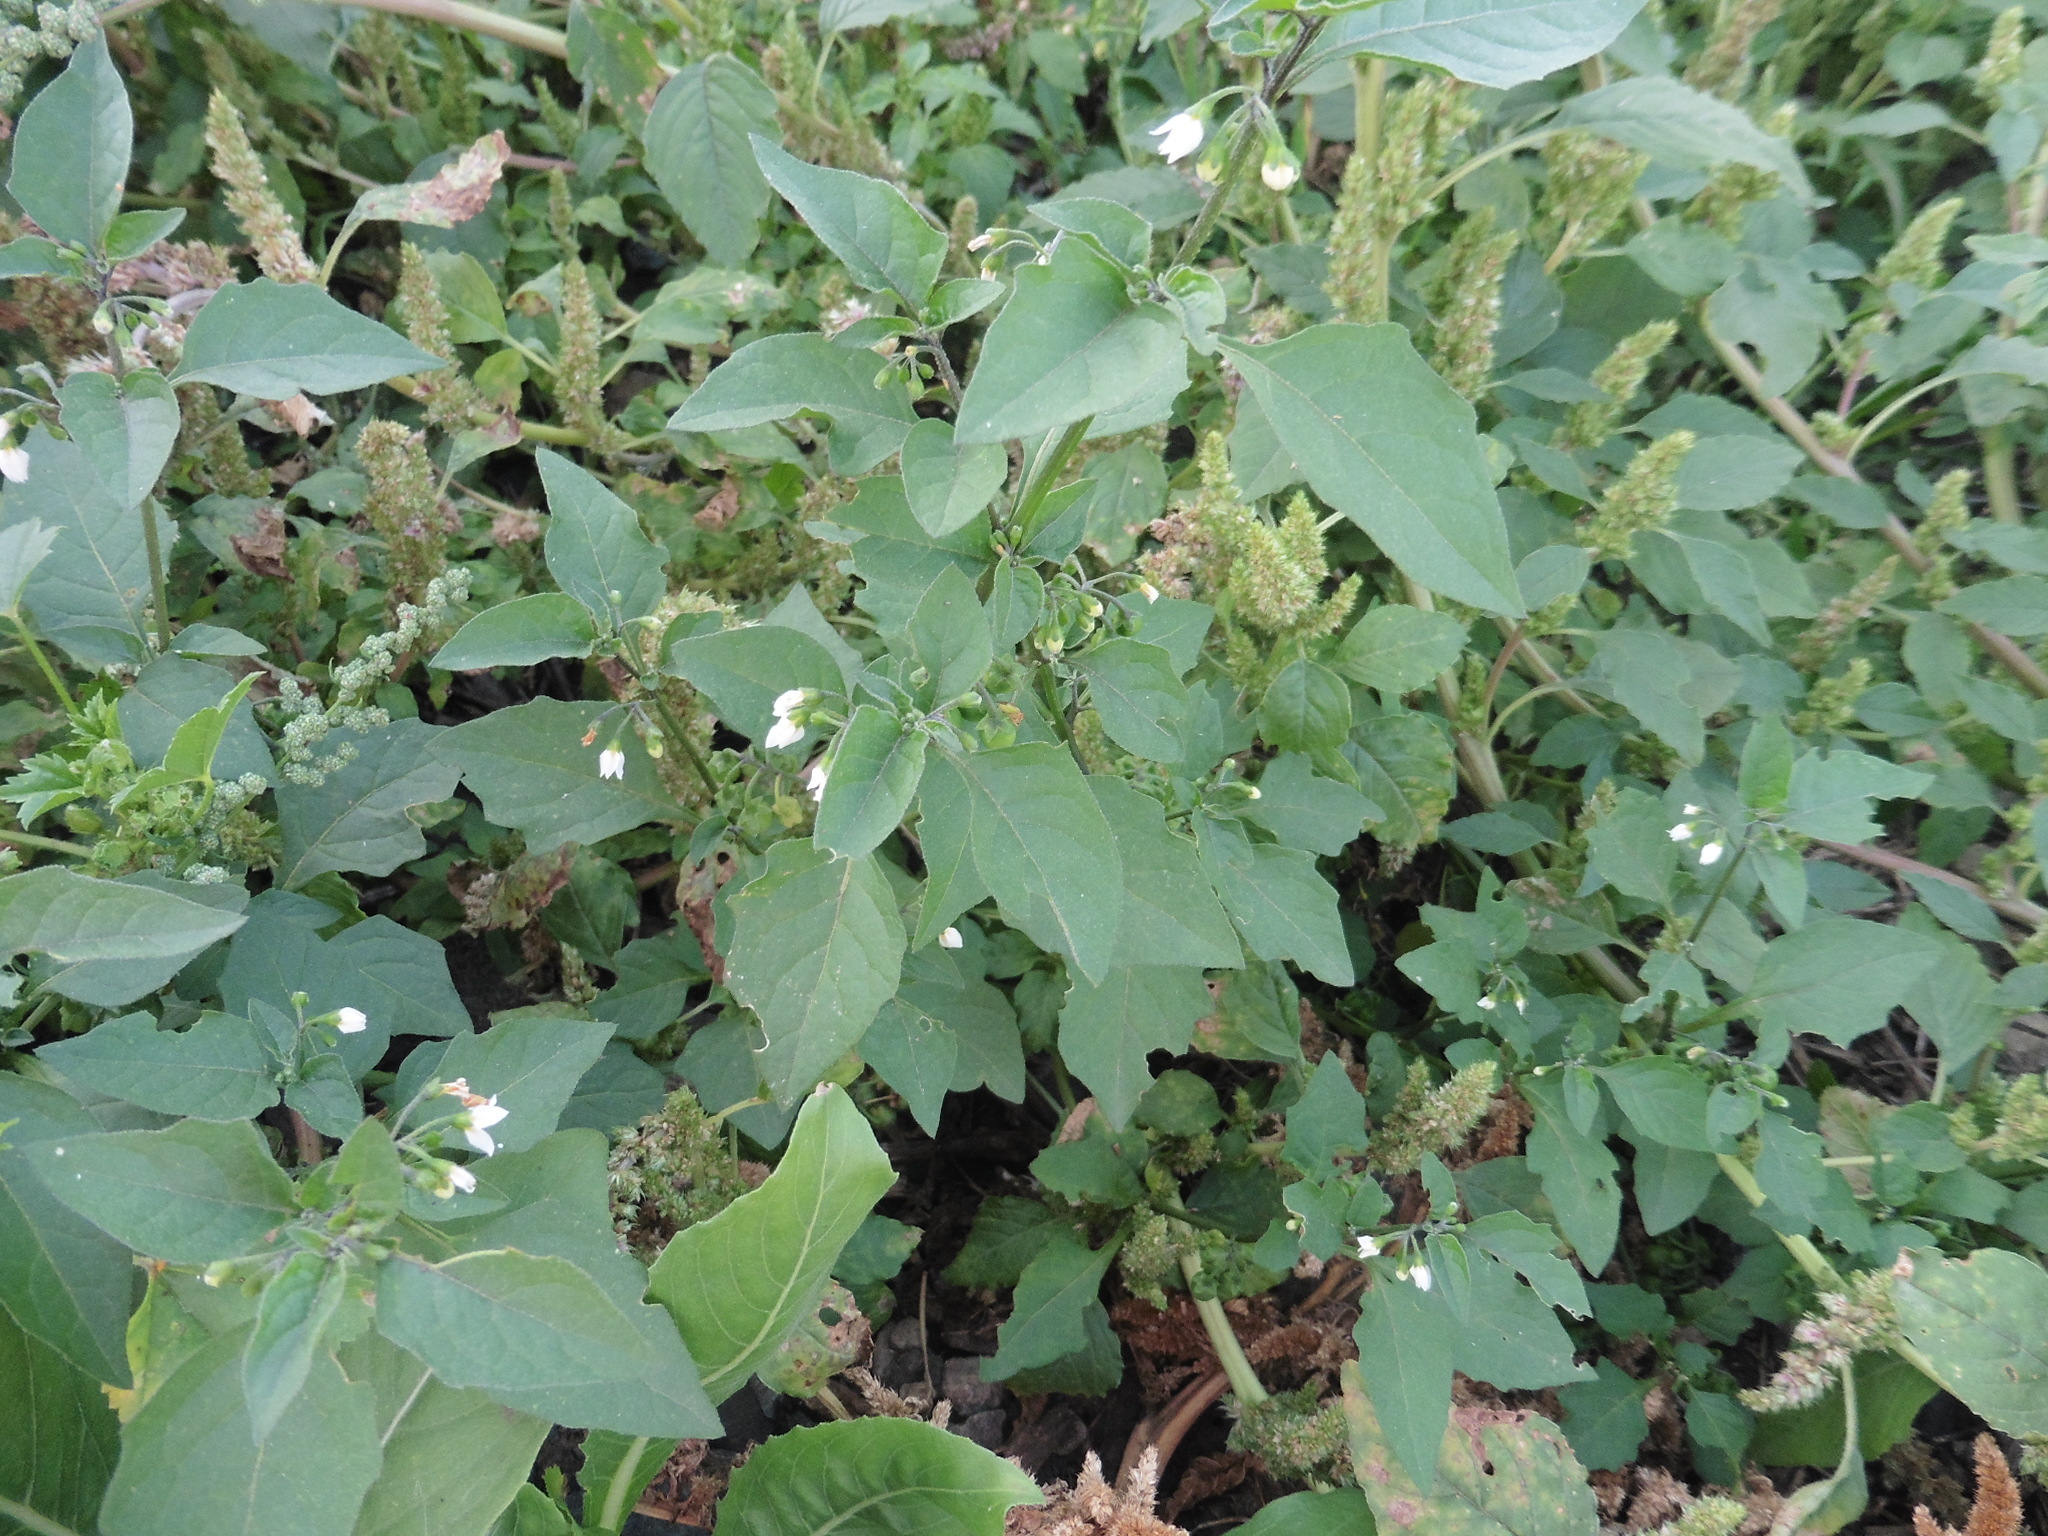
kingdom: Plantae
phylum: Tracheophyta
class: Magnoliopsida
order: Solanales
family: Solanaceae
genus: Solanum
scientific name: Solanum nigrum
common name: Black nightshade
